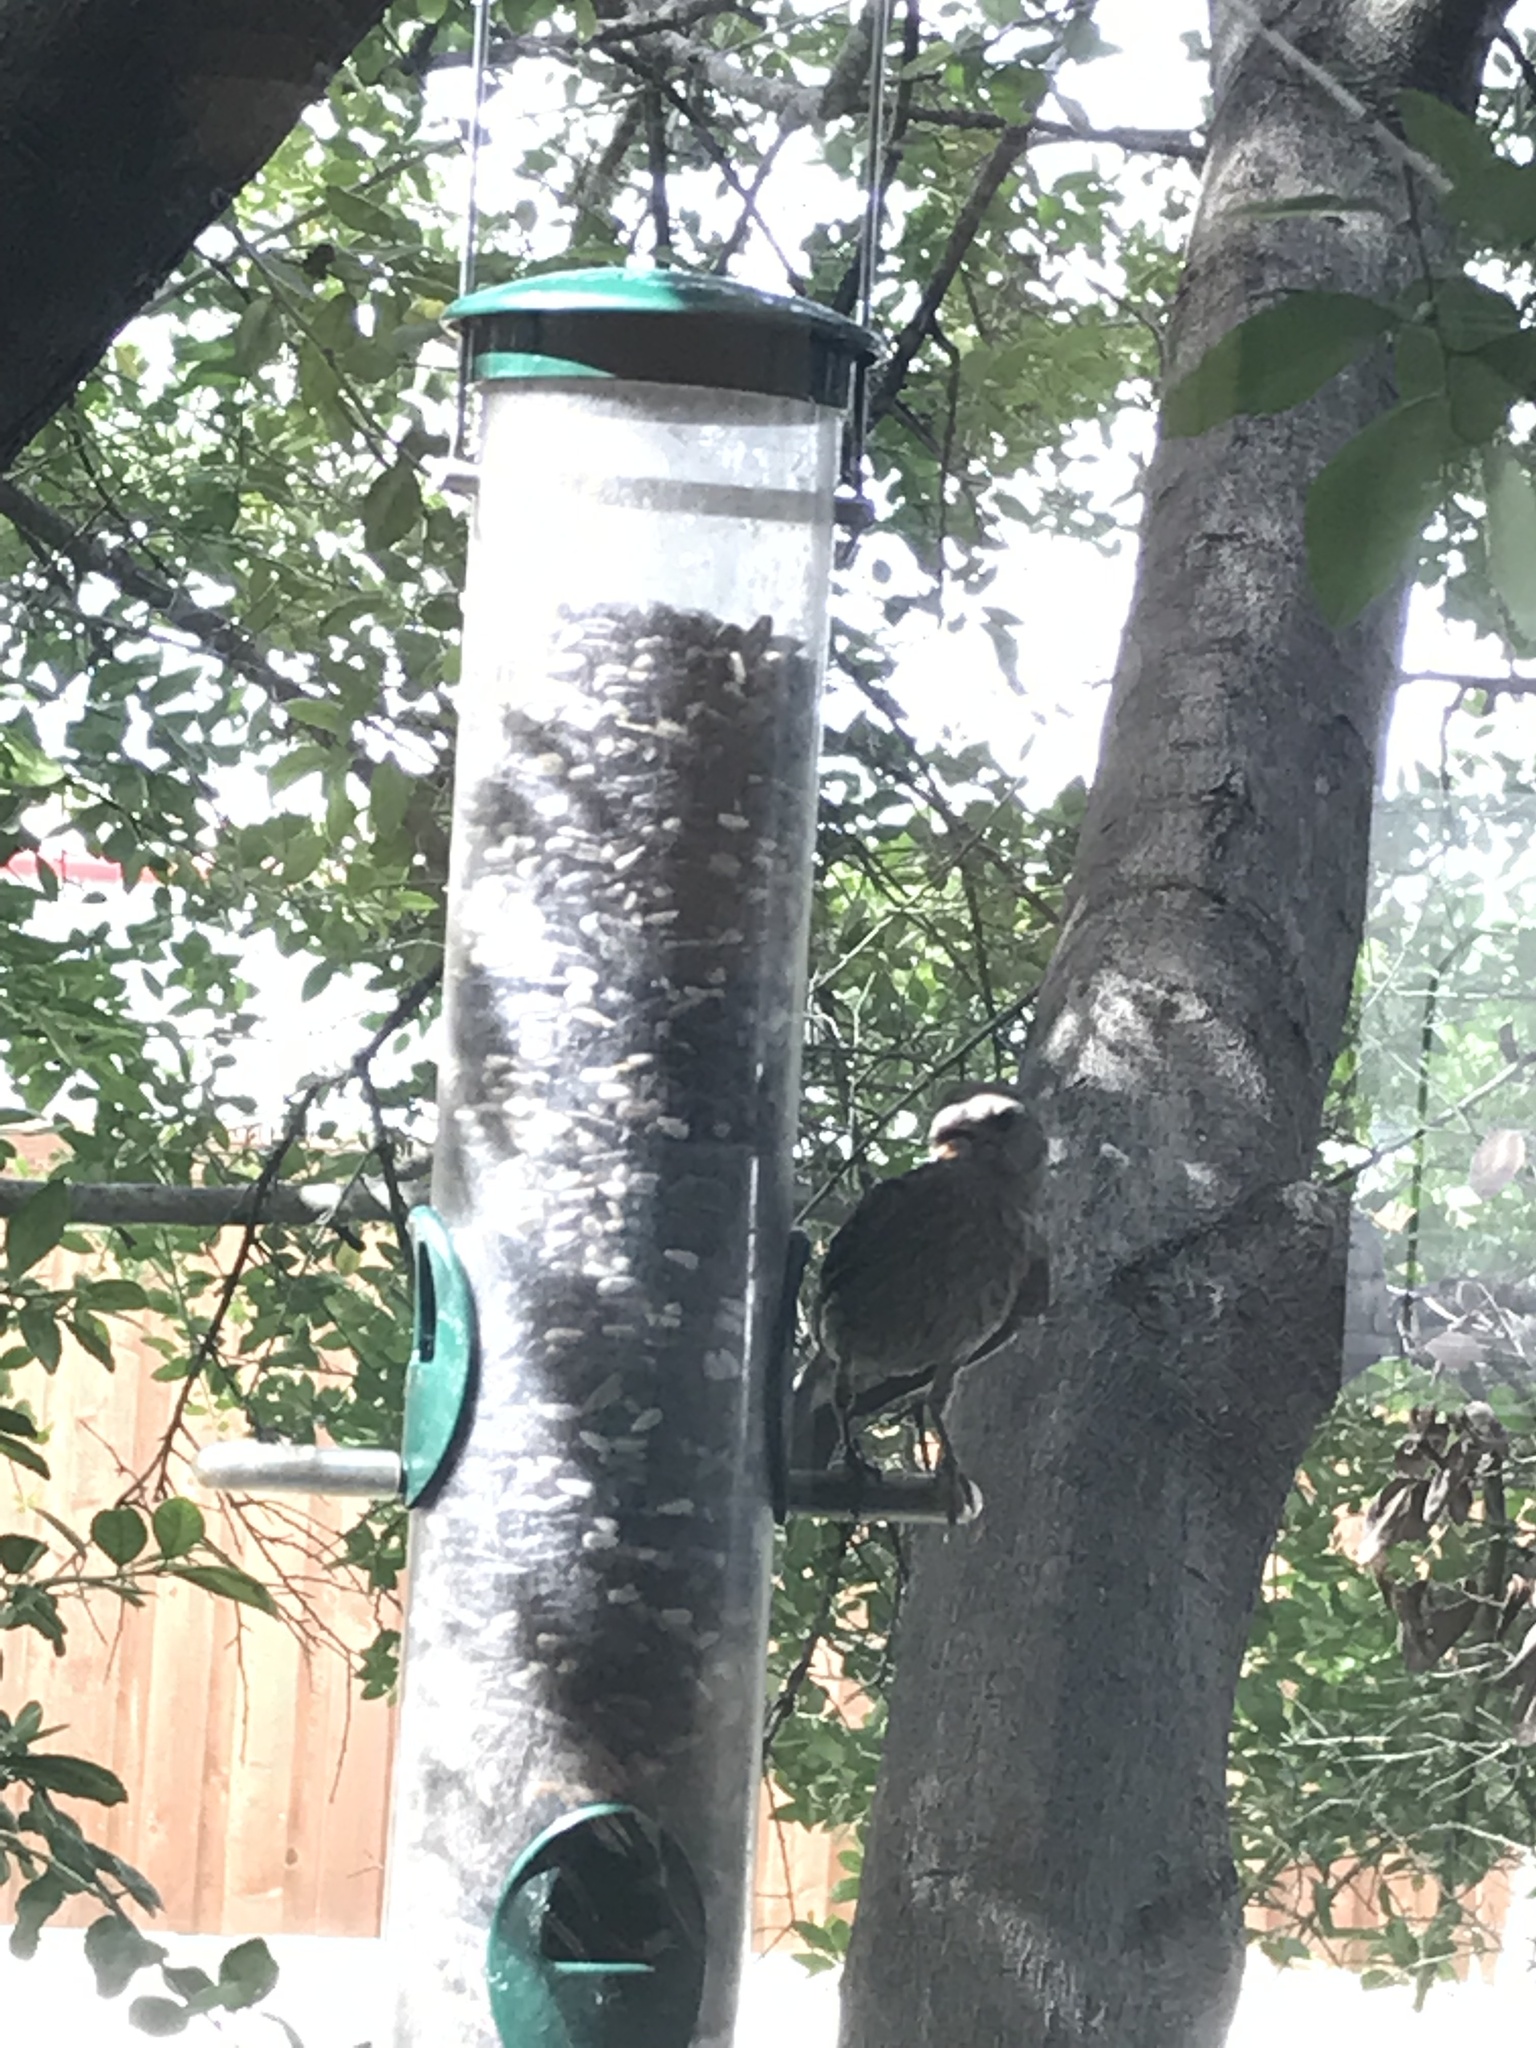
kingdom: Animalia
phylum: Chordata
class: Aves
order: Passeriformes
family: Fringillidae
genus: Haemorhous
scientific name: Haemorhous mexicanus
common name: House finch
